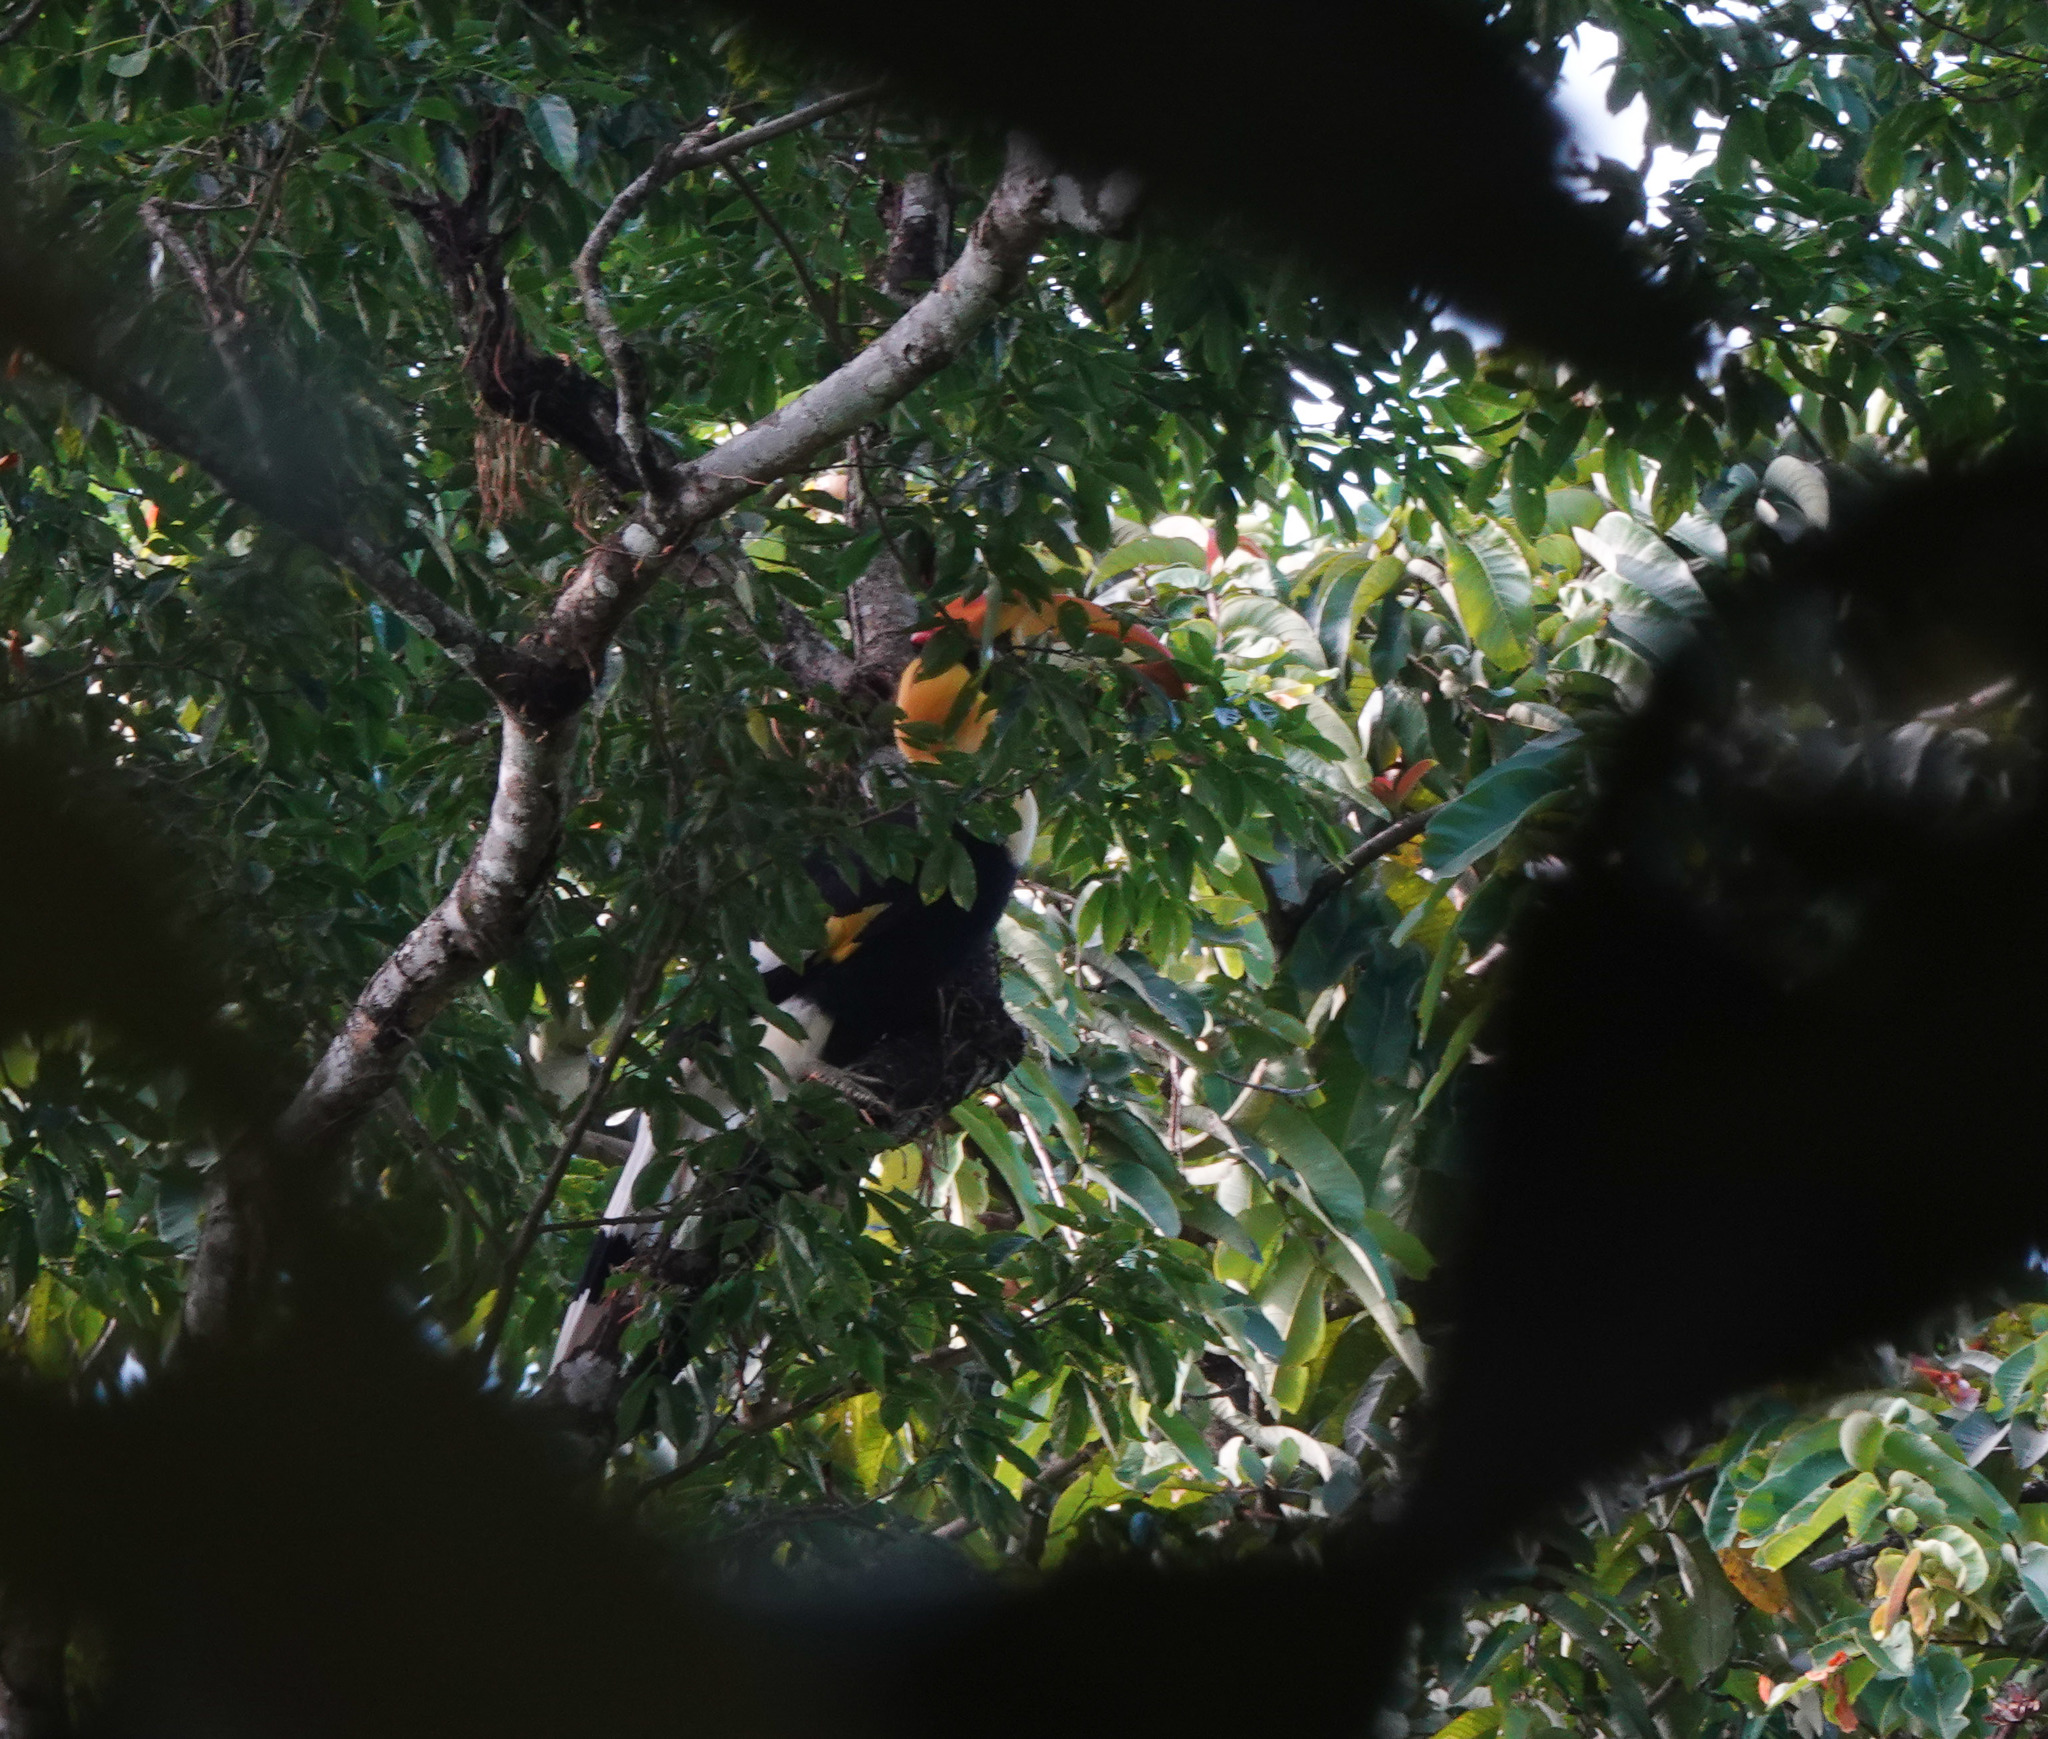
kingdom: Animalia
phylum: Chordata
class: Aves
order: Bucerotiformes
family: Bucerotidae
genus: Buceros
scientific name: Buceros bicornis
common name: Great hornbill
